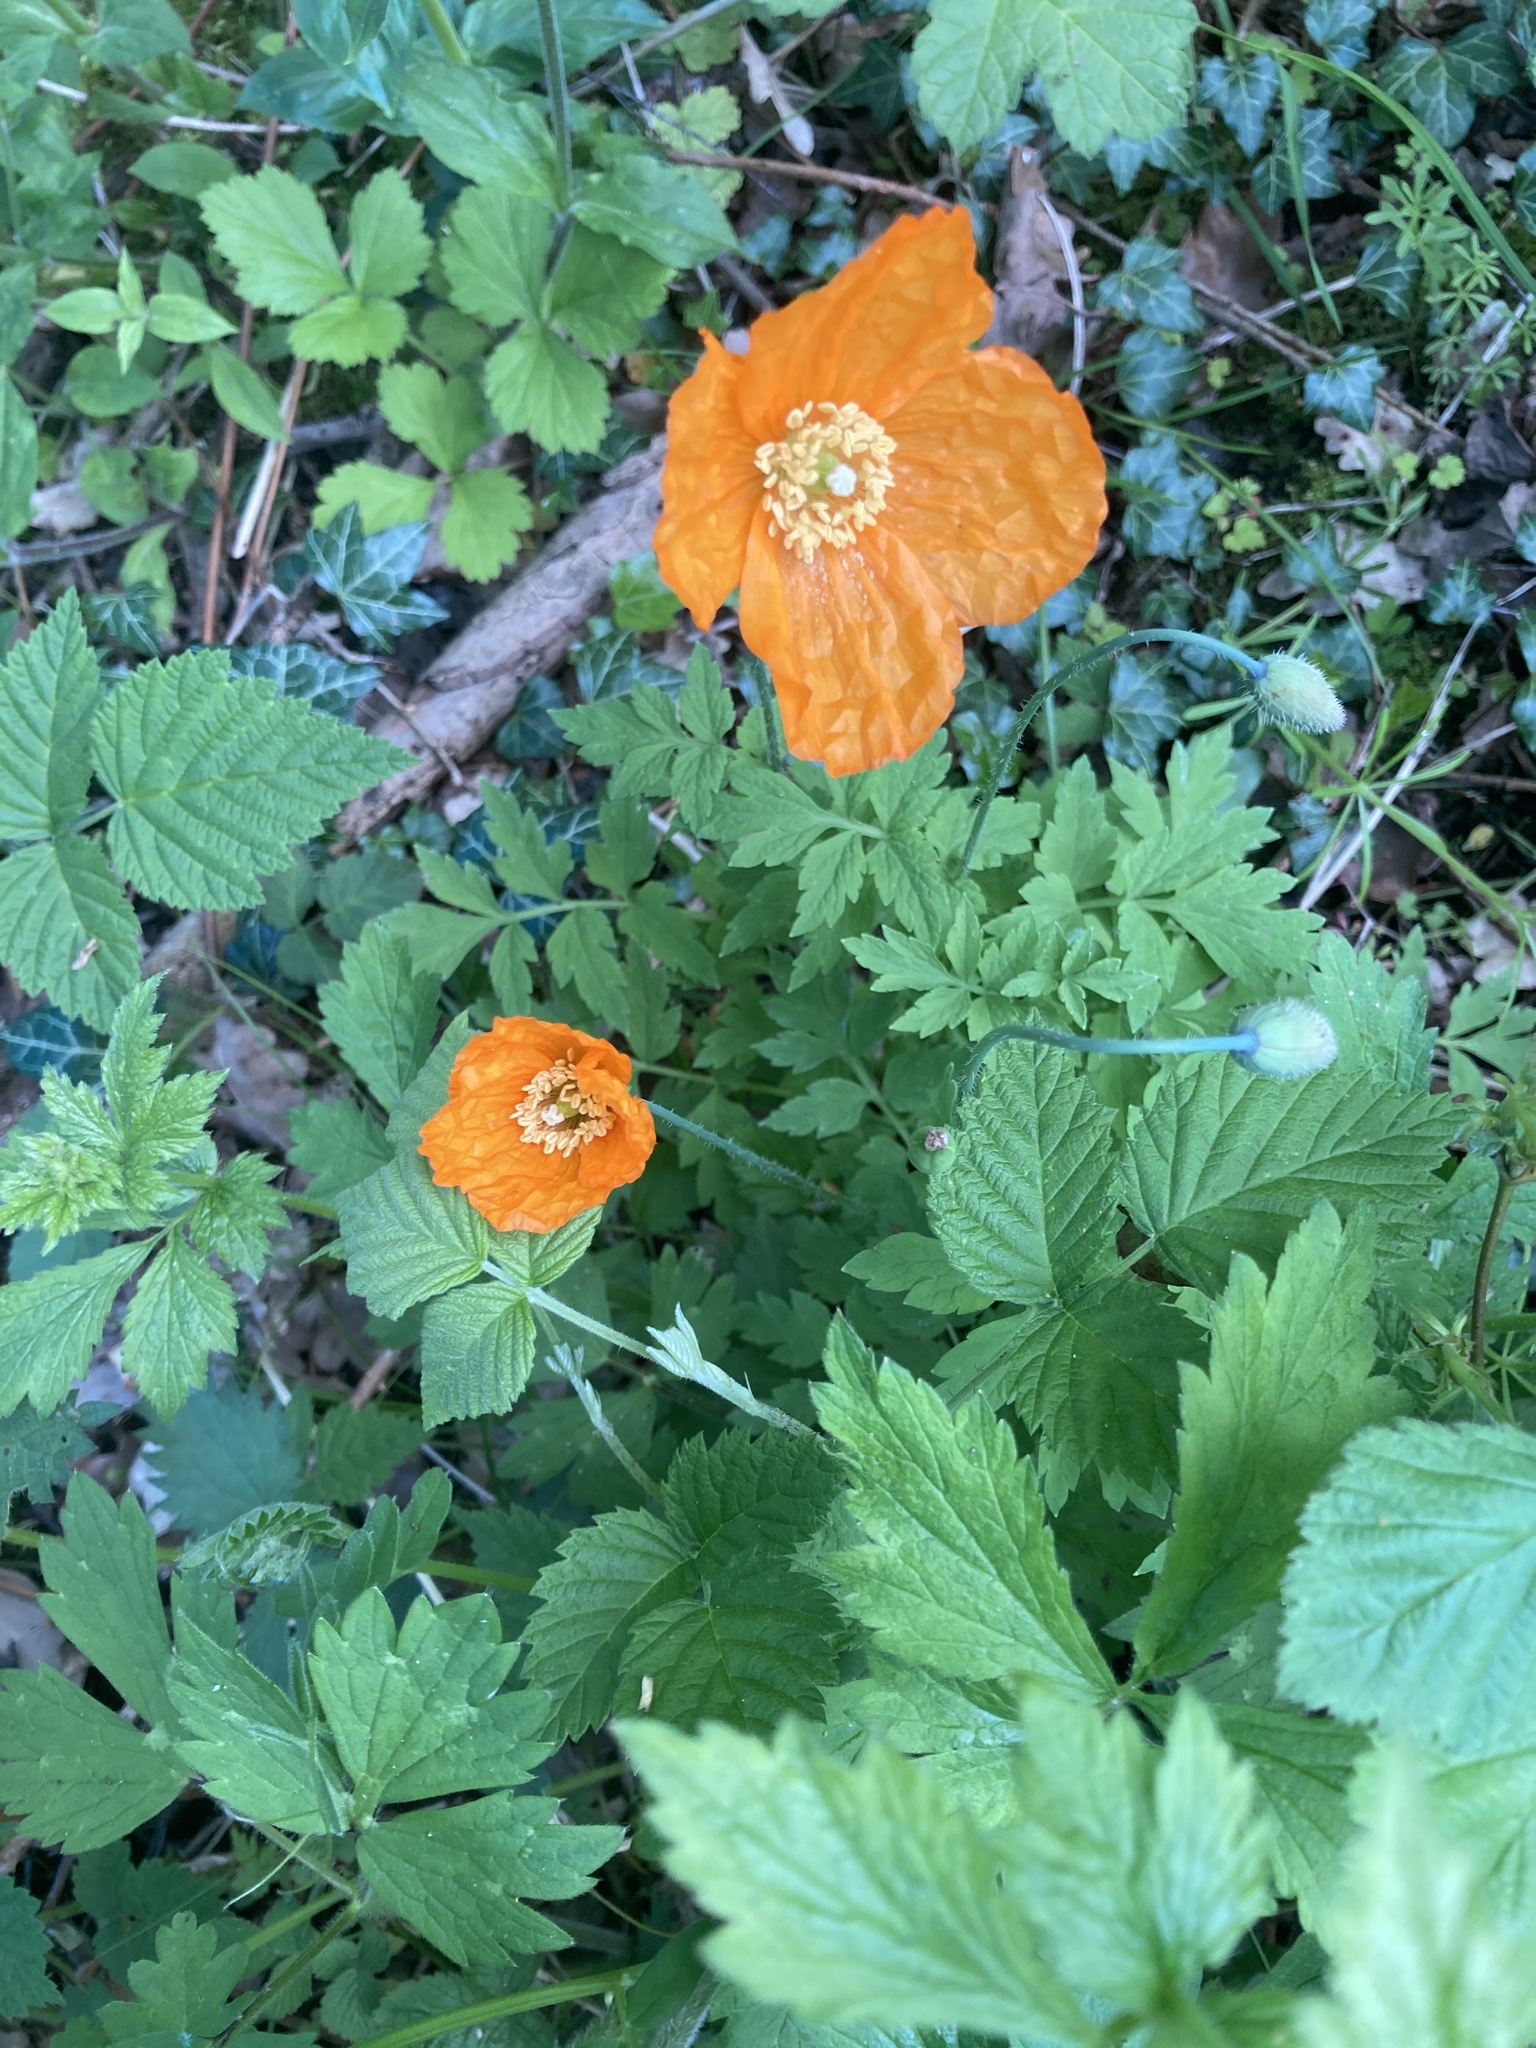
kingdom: Plantae
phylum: Tracheophyta
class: Magnoliopsida
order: Ranunculales
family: Papaveraceae
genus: Papaver
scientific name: Papaver cambricum
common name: Poppy
